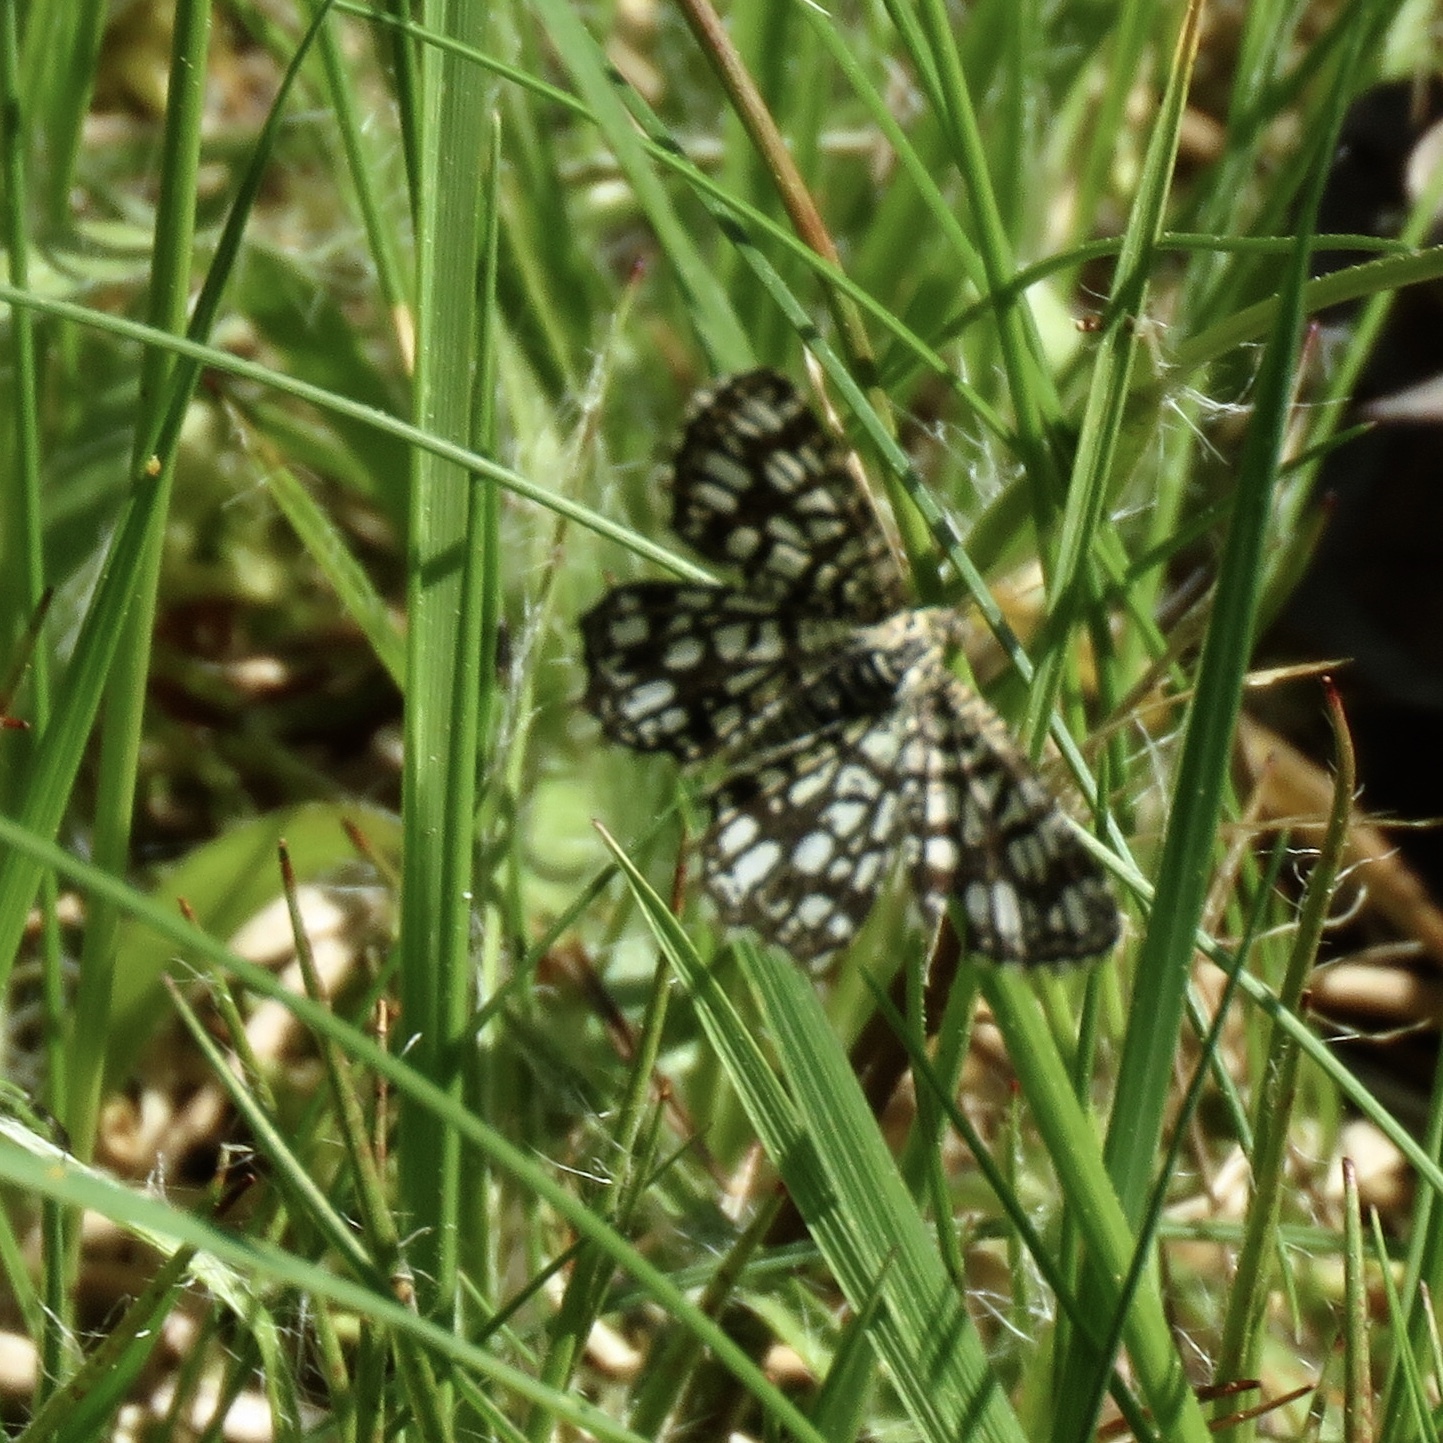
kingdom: Animalia
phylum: Arthropoda
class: Insecta
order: Lepidoptera
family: Geometridae
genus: Chiasmia
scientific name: Chiasmia clathrata
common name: Latticed heath
